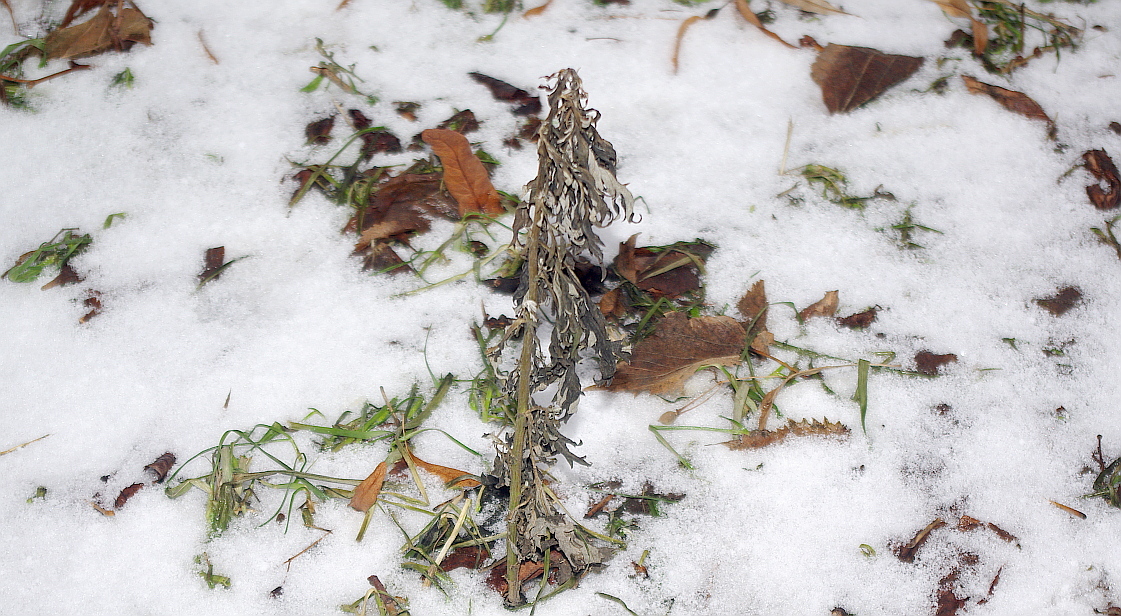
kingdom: Plantae
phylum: Tracheophyta
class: Magnoliopsida
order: Asterales
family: Asteraceae
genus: Artemisia
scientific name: Artemisia vulgaris
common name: Mugwort
